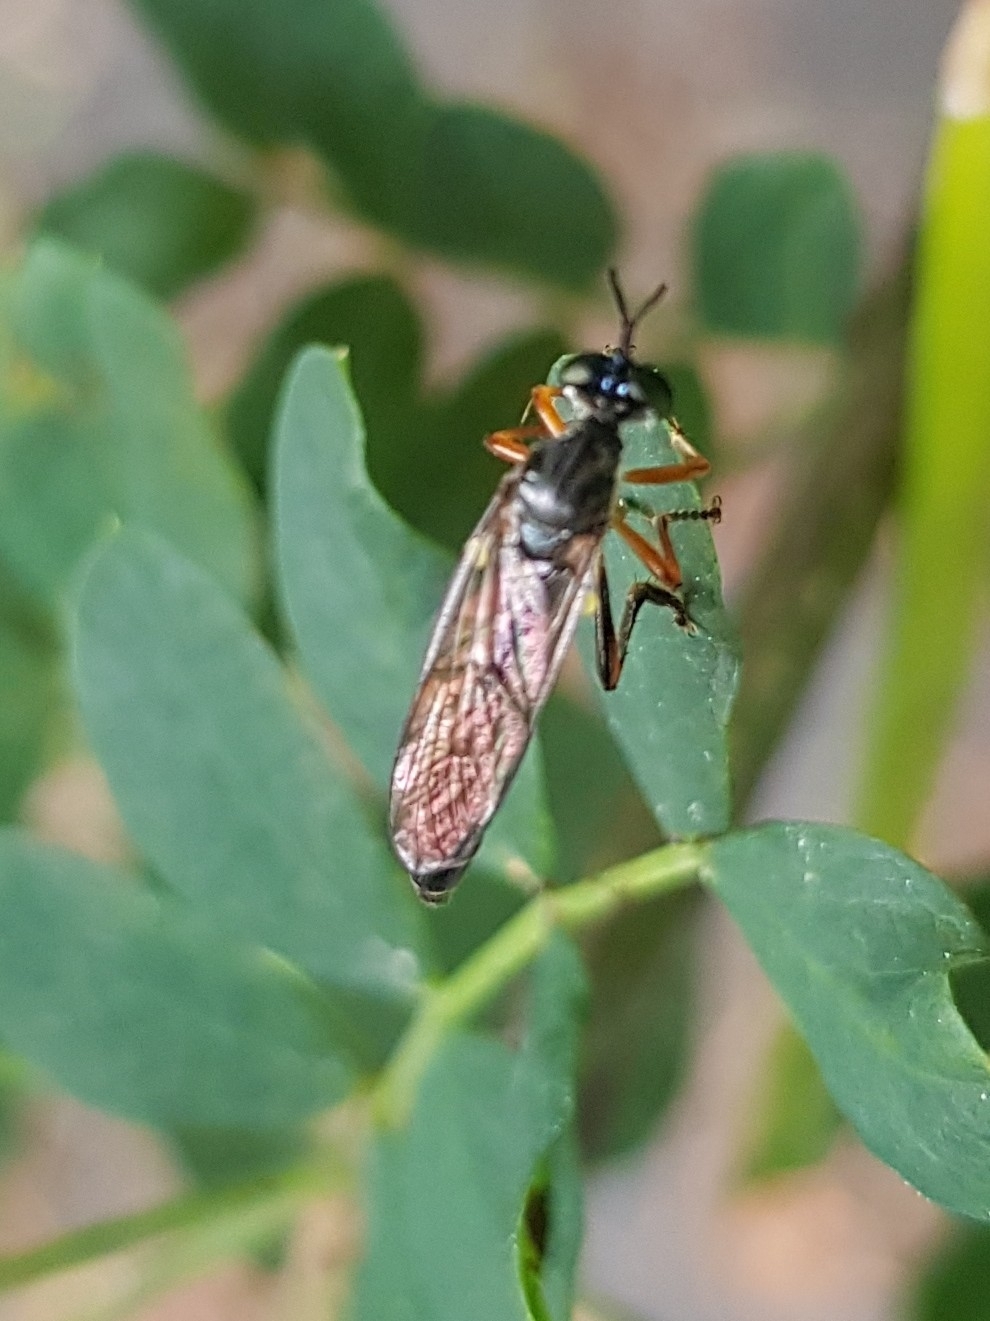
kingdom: Animalia
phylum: Arthropoda
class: Insecta
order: Diptera
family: Asilidae
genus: Dioctria
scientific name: Dioctria hyalipennis
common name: Stripe-legged robberfly
